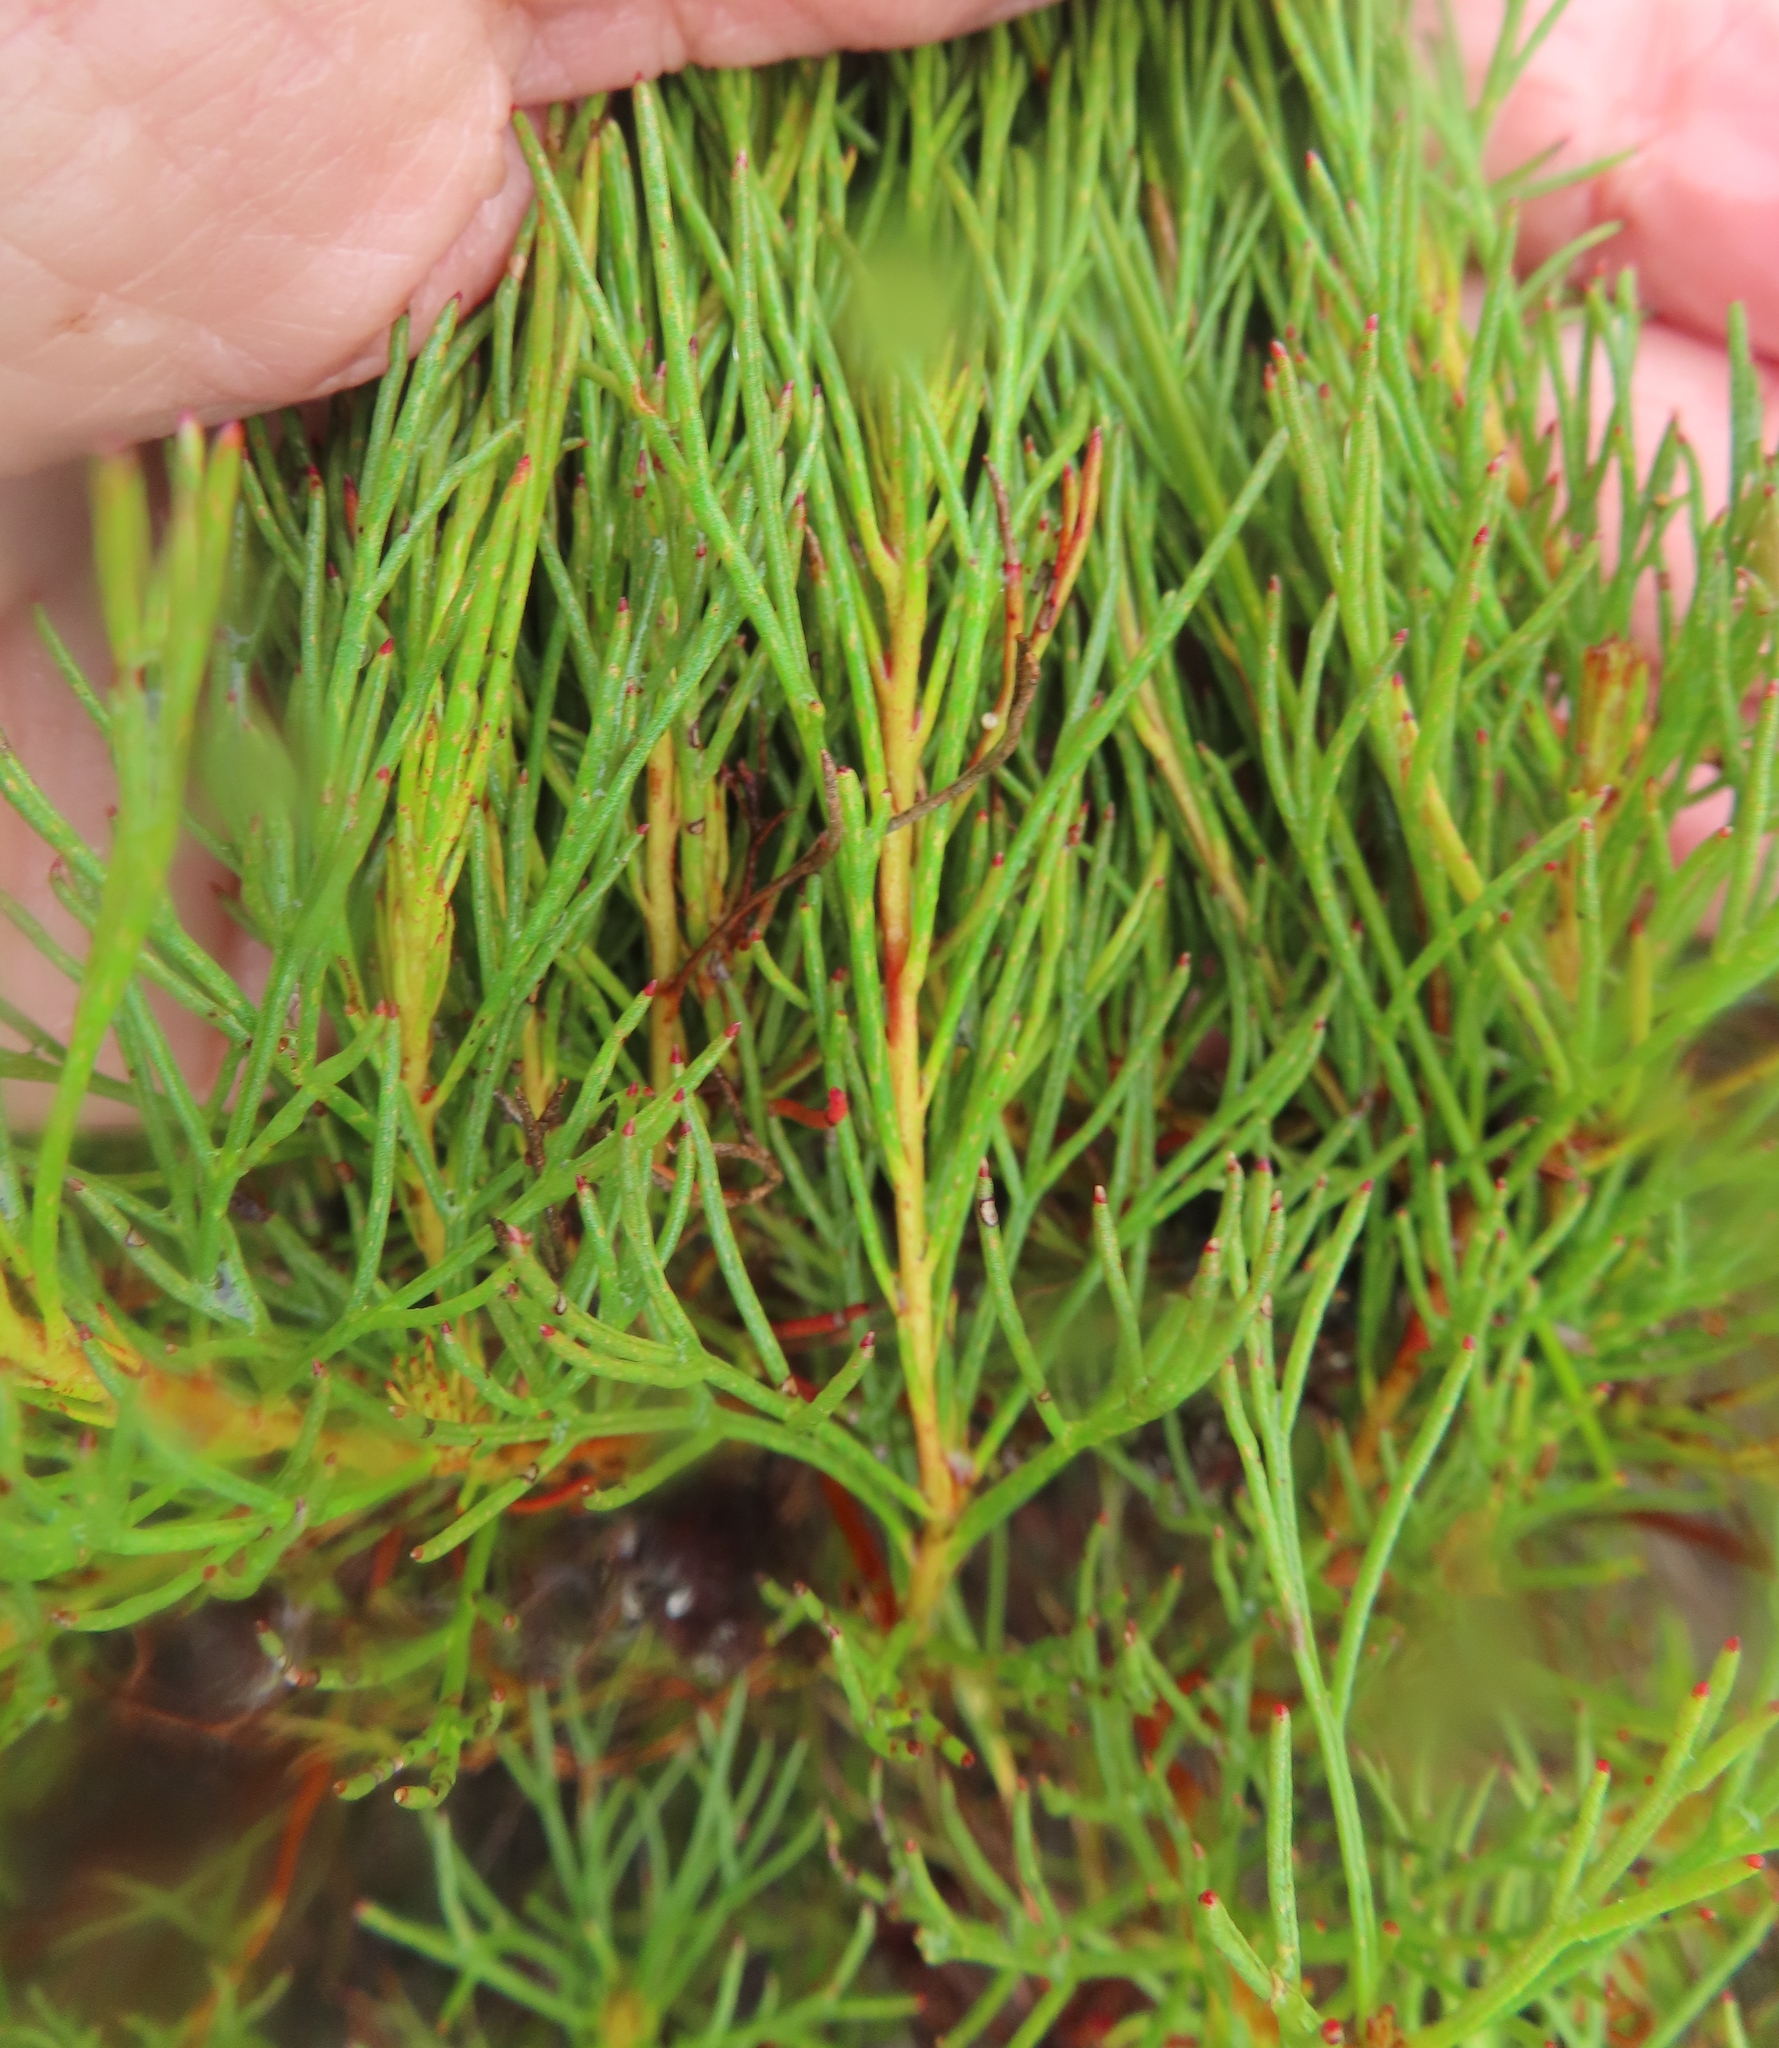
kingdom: Plantae
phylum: Tracheophyta
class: Magnoliopsida
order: Proteales
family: Proteaceae
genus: Serruria
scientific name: Serruria bolusii
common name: Agulhas spiderhead
